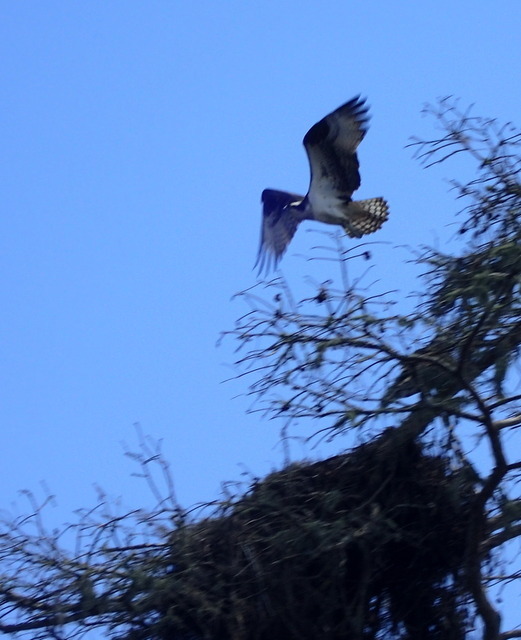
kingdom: Animalia
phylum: Chordata
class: Aves
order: Accipitriformes
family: Pandionidae
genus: Pandion
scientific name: Pandion haliaetus
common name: Osprey
